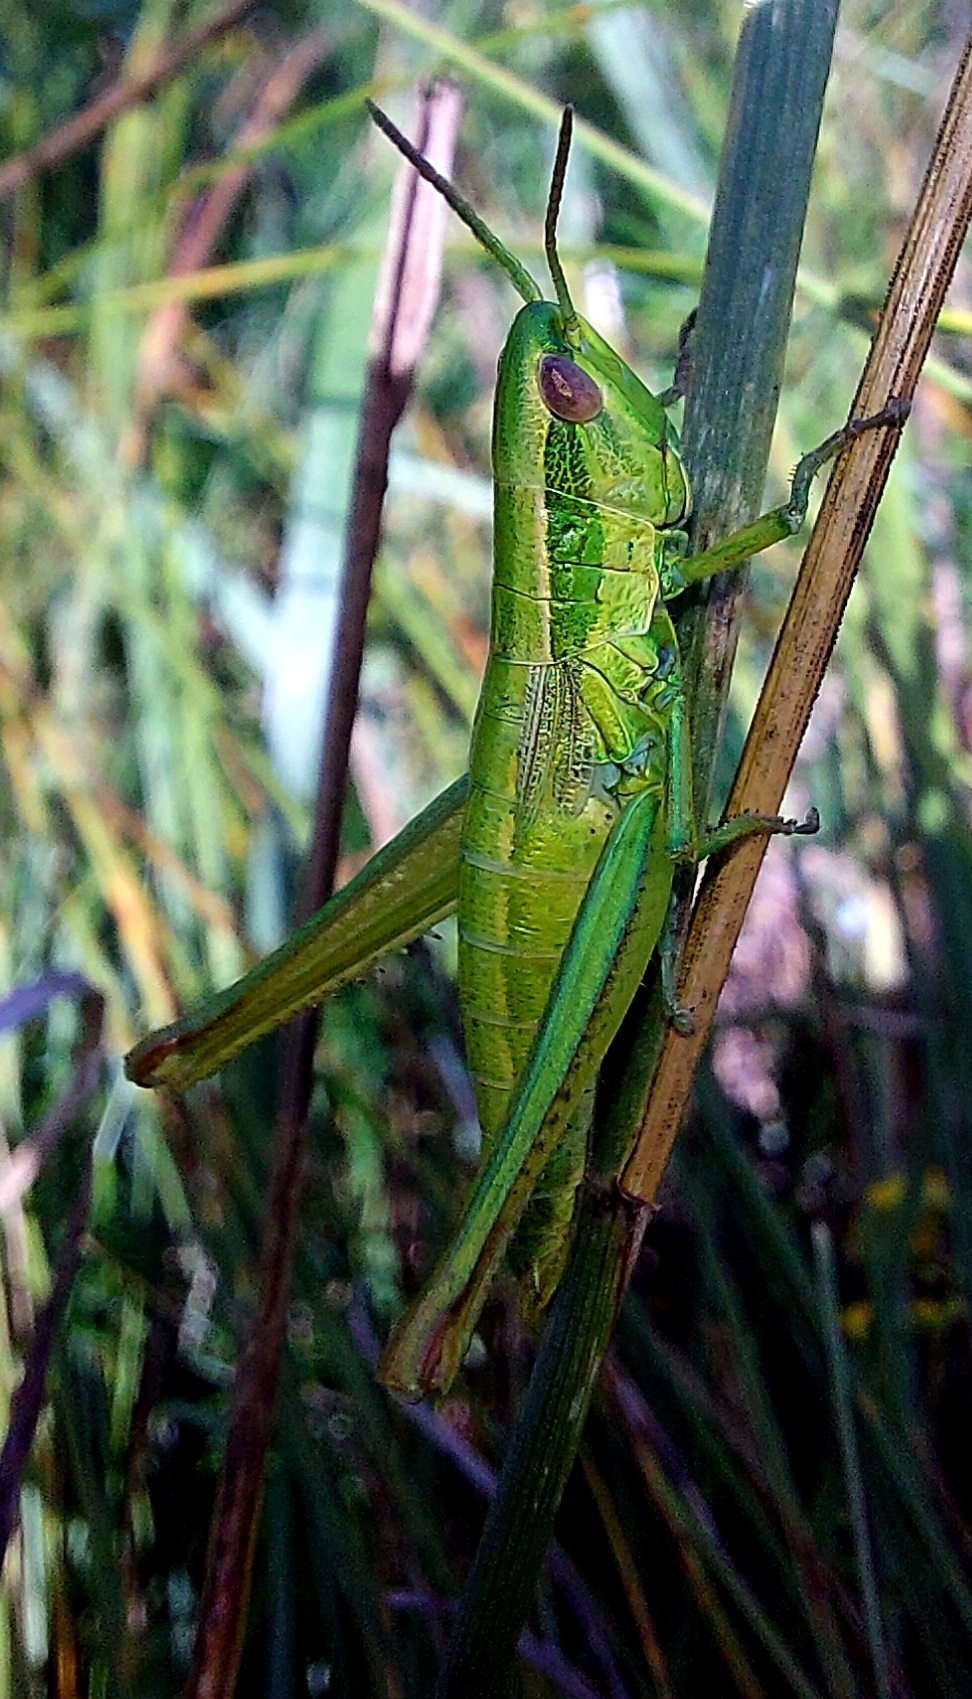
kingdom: Animalia
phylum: Arthropoda
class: Insecta
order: Orthoptera
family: Acrididae
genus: Euthystira
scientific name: Euthystira brachyptera
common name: Small gold grasshopper
